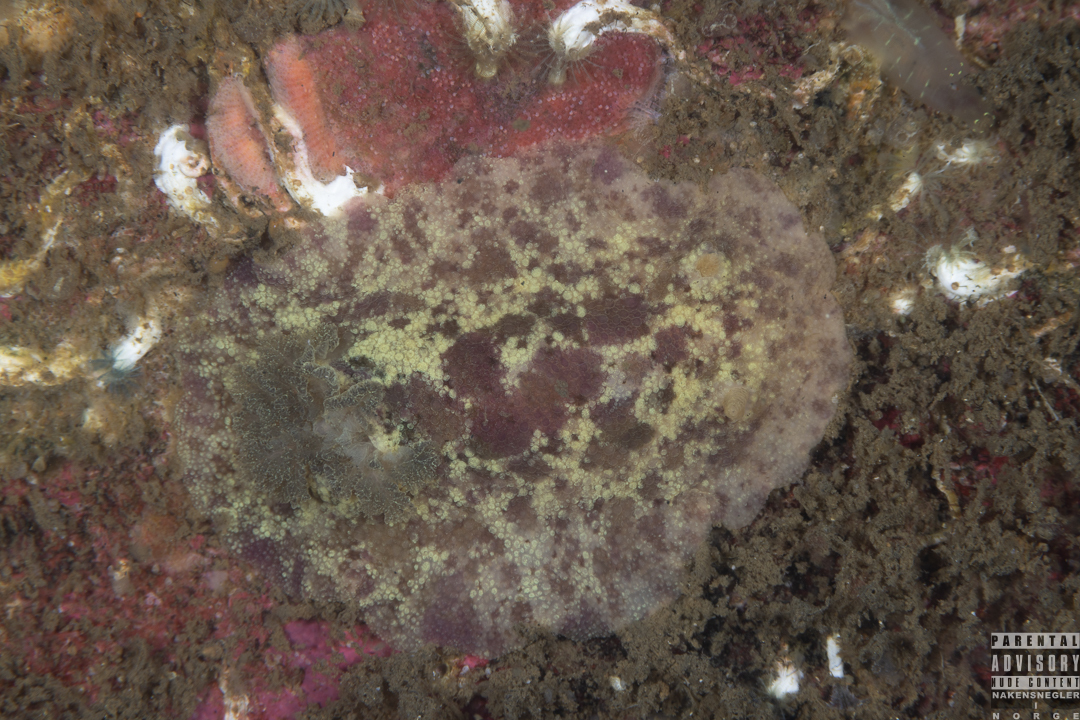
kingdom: Animalia
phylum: Mollusca
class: Gastropoda
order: Nudibranchia
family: Dorididae
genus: Doris
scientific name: Doris pseudoargus
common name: Sea lemon
